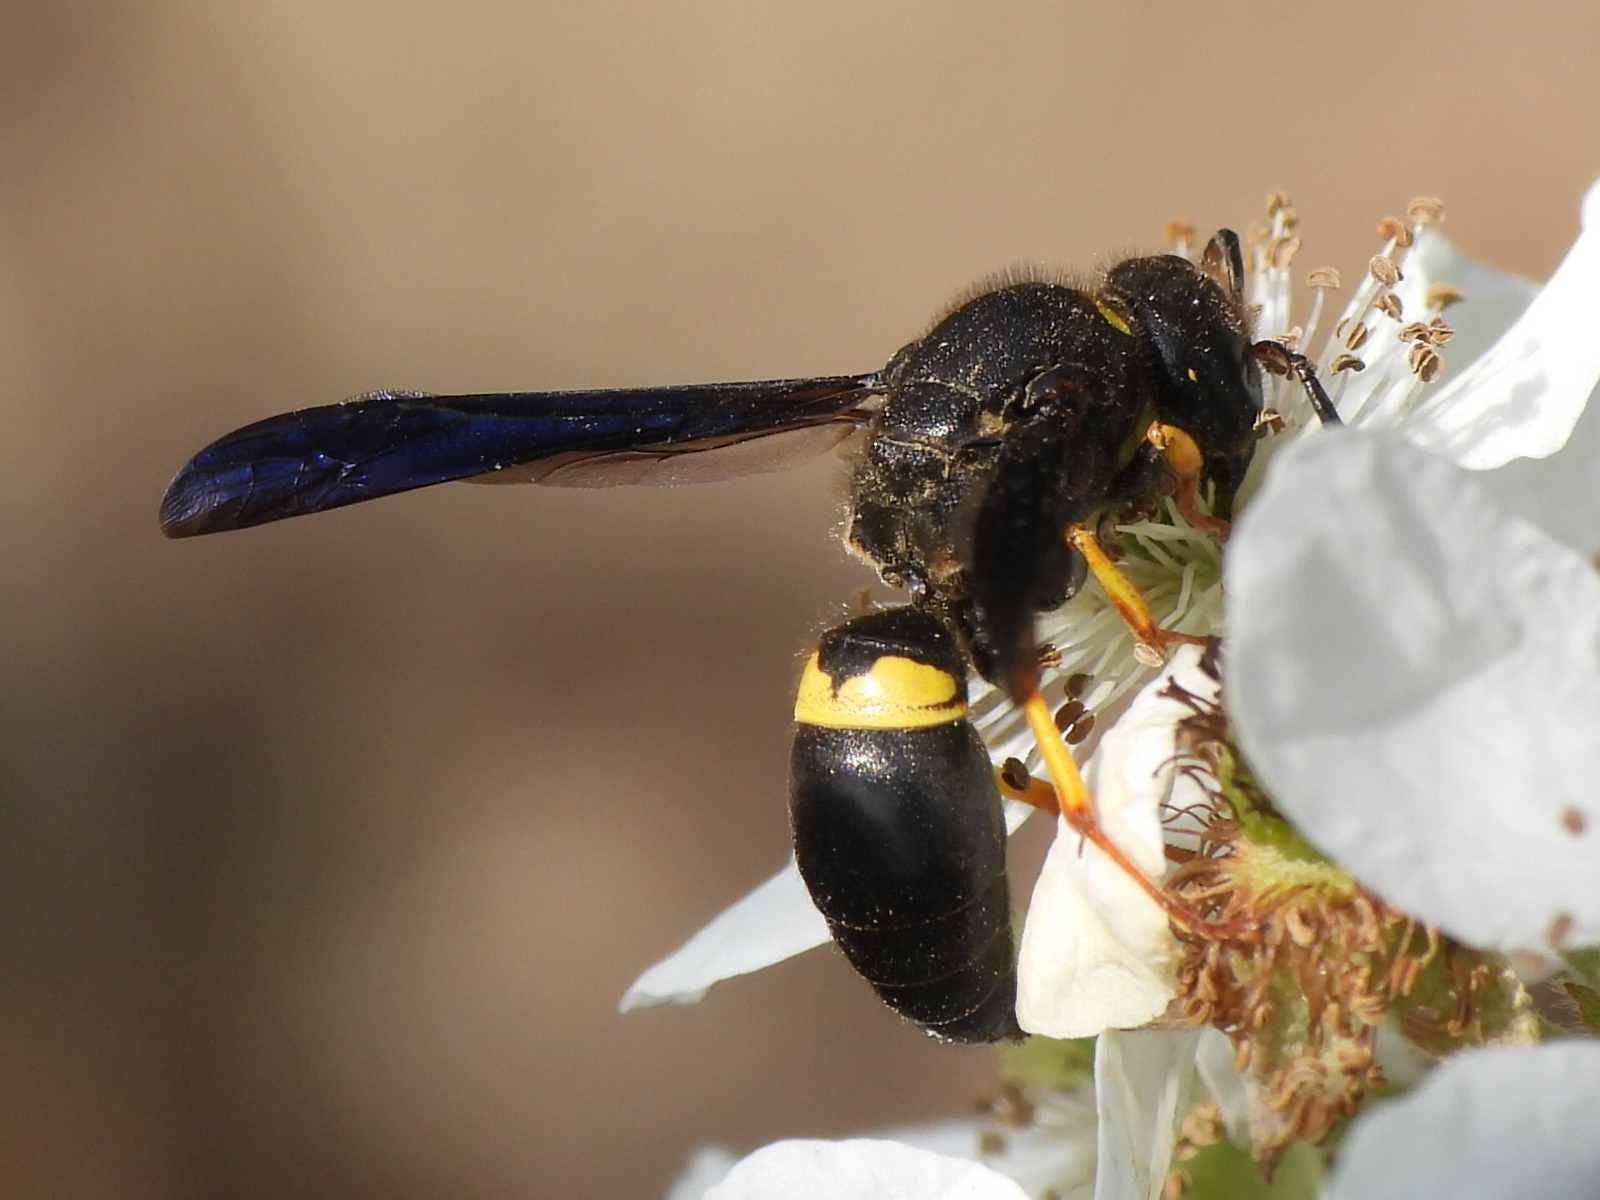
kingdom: Animalia
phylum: Arthropoda
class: Insecta
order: Hymenoptera
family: Vespidae
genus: Ancistrocerus
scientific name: Ancistrocerus spinolae
